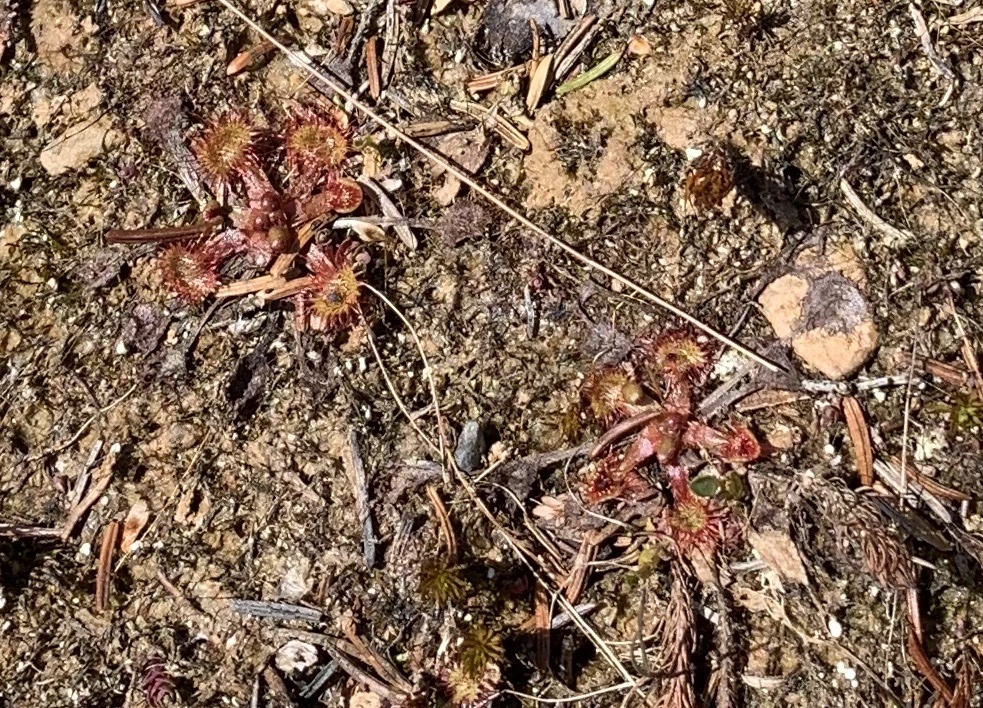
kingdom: Plantae
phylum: Tracheophyta
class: Magnoliopsida
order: Caryophyllales
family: Droseraceae
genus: Drosera
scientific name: Drosera rotundifolia
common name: Round-leaved sundew
